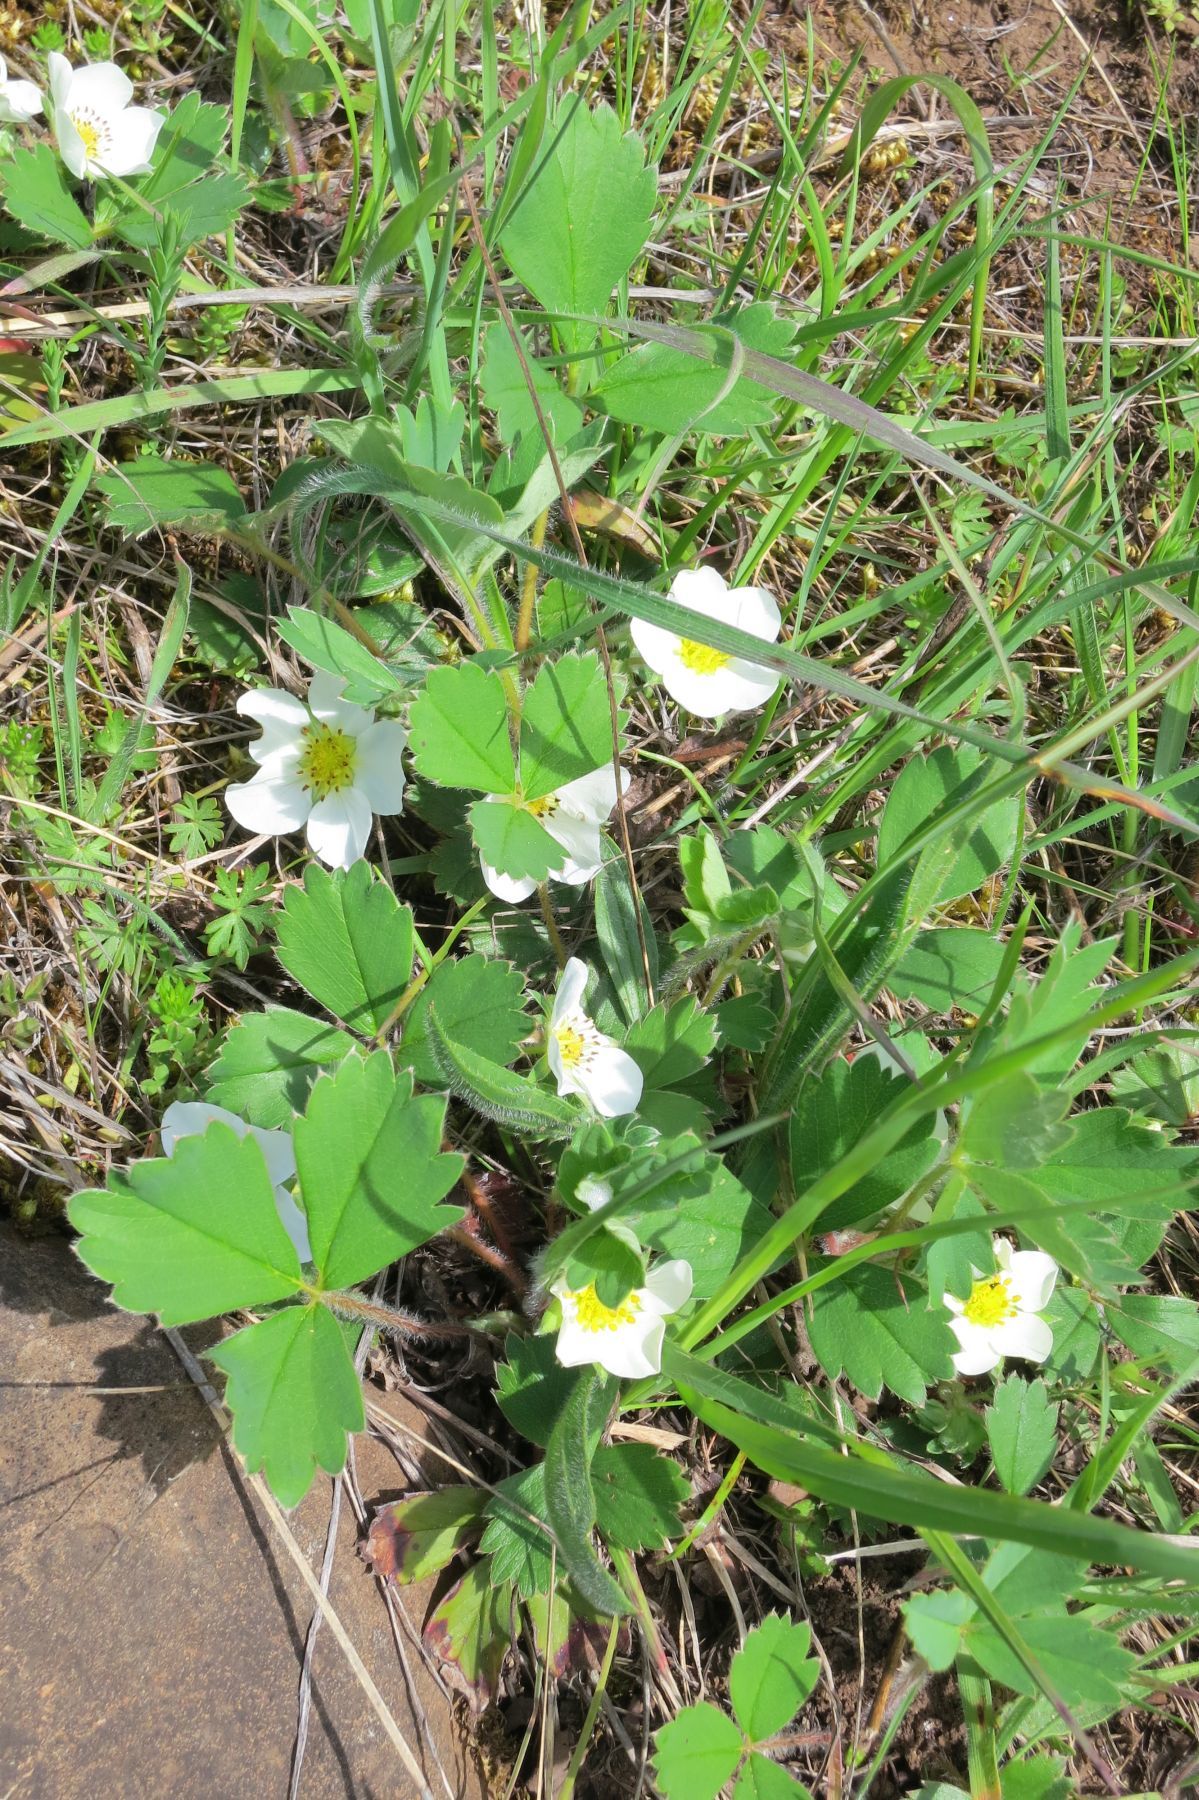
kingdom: Plantae
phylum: Tracheophyta
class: Magnoliopsida
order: Rosales
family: Rosaceae
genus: Fragaria
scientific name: Fragaria virginiana
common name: Thickleaved wild strawberry
